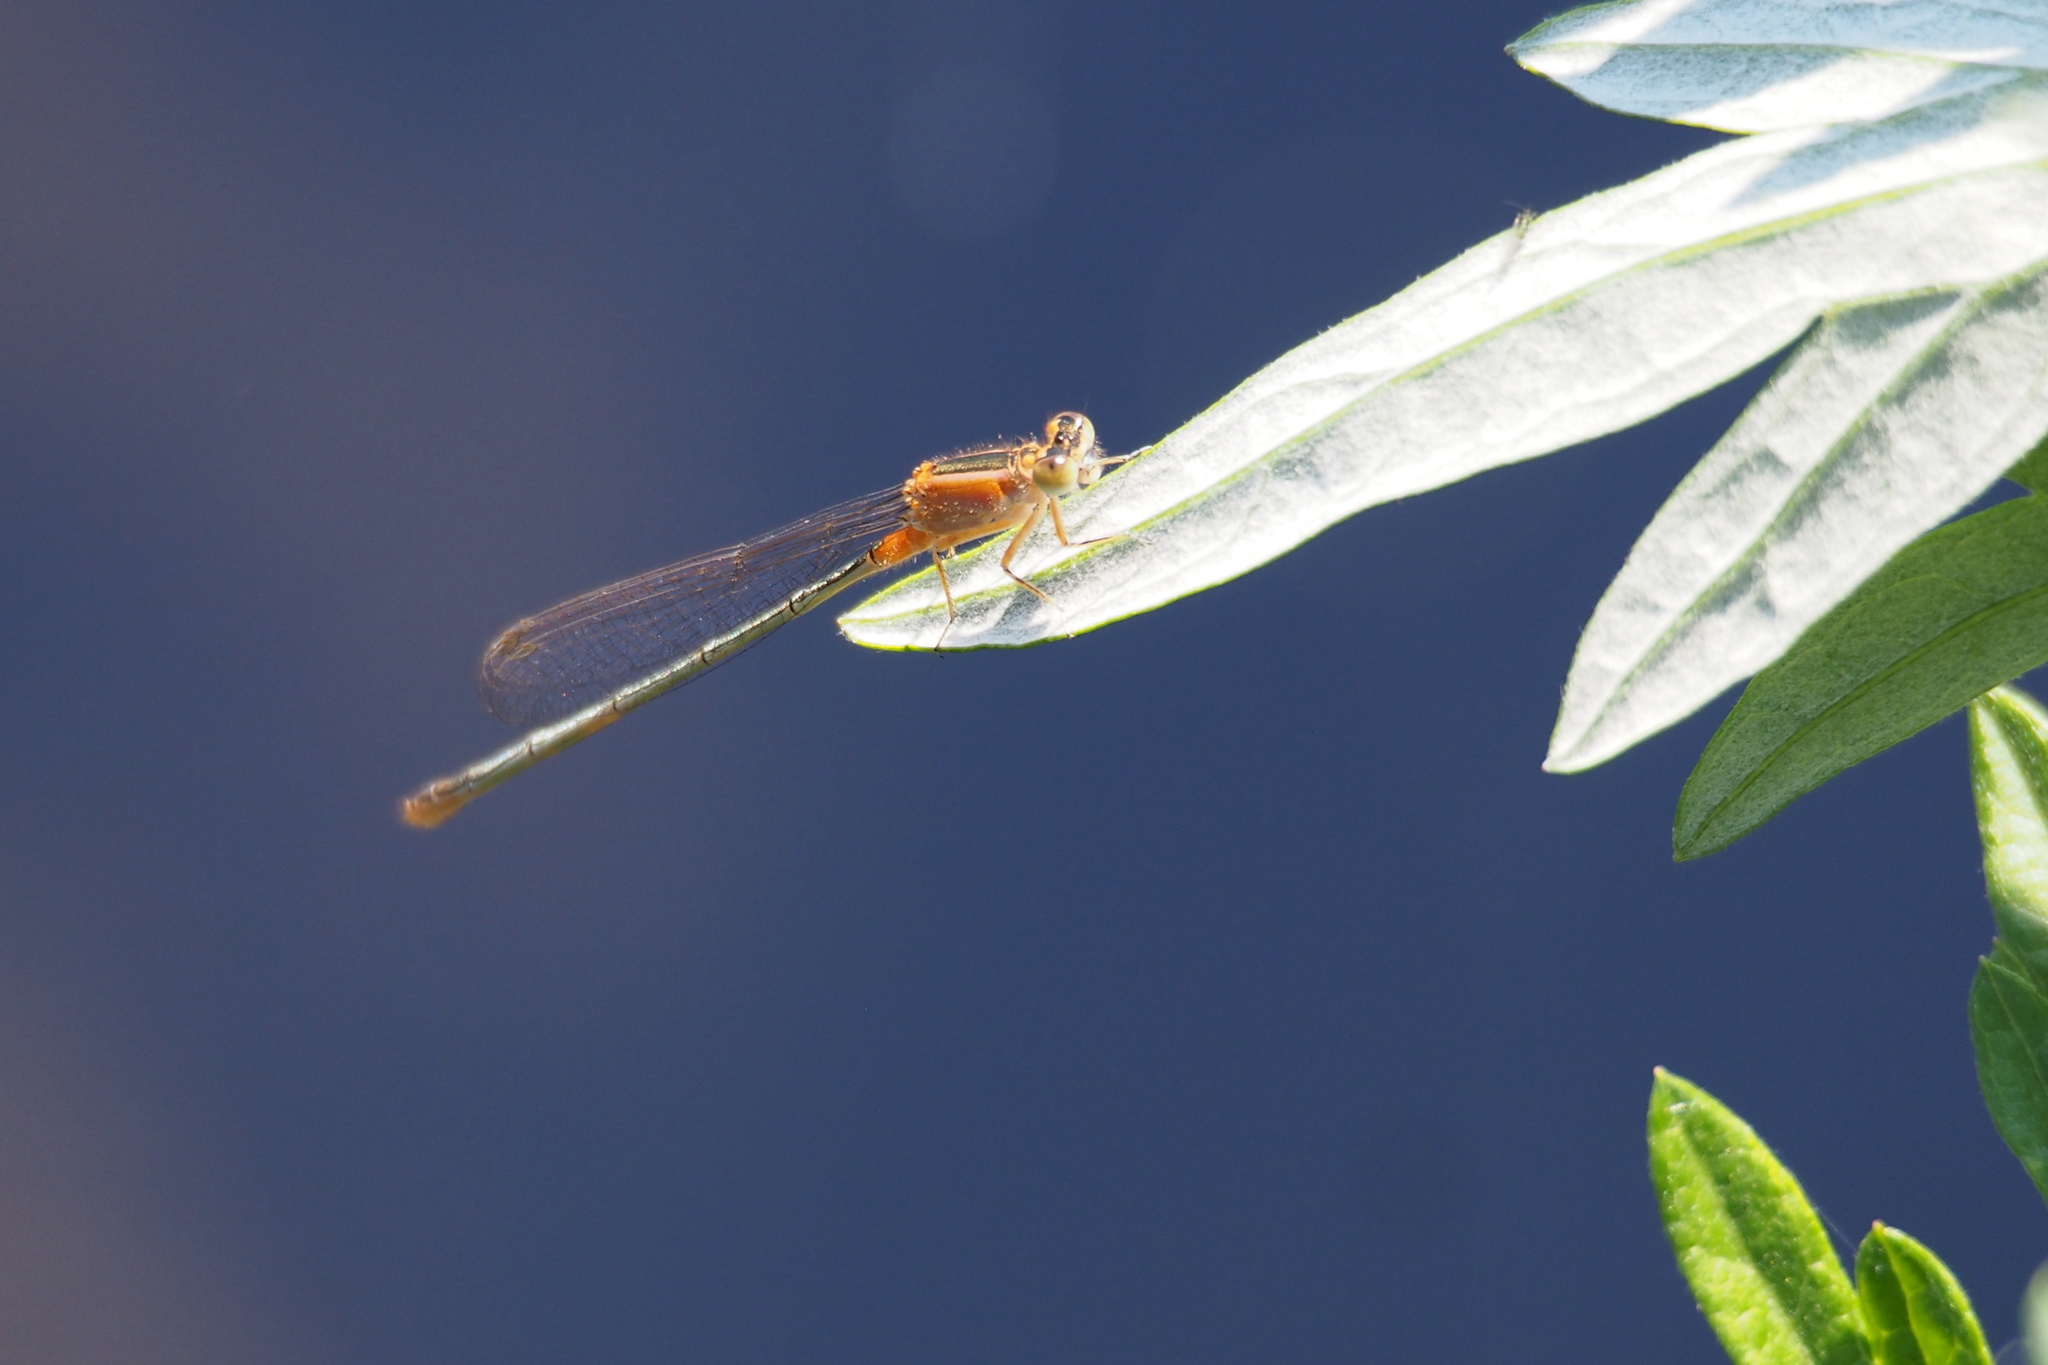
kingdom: Animalia
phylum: Arthropoda
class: Insecta
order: Odonata
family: Coenagrionidae
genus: Ischnura
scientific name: Ischnura senegalensis
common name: Tropical bluetail
